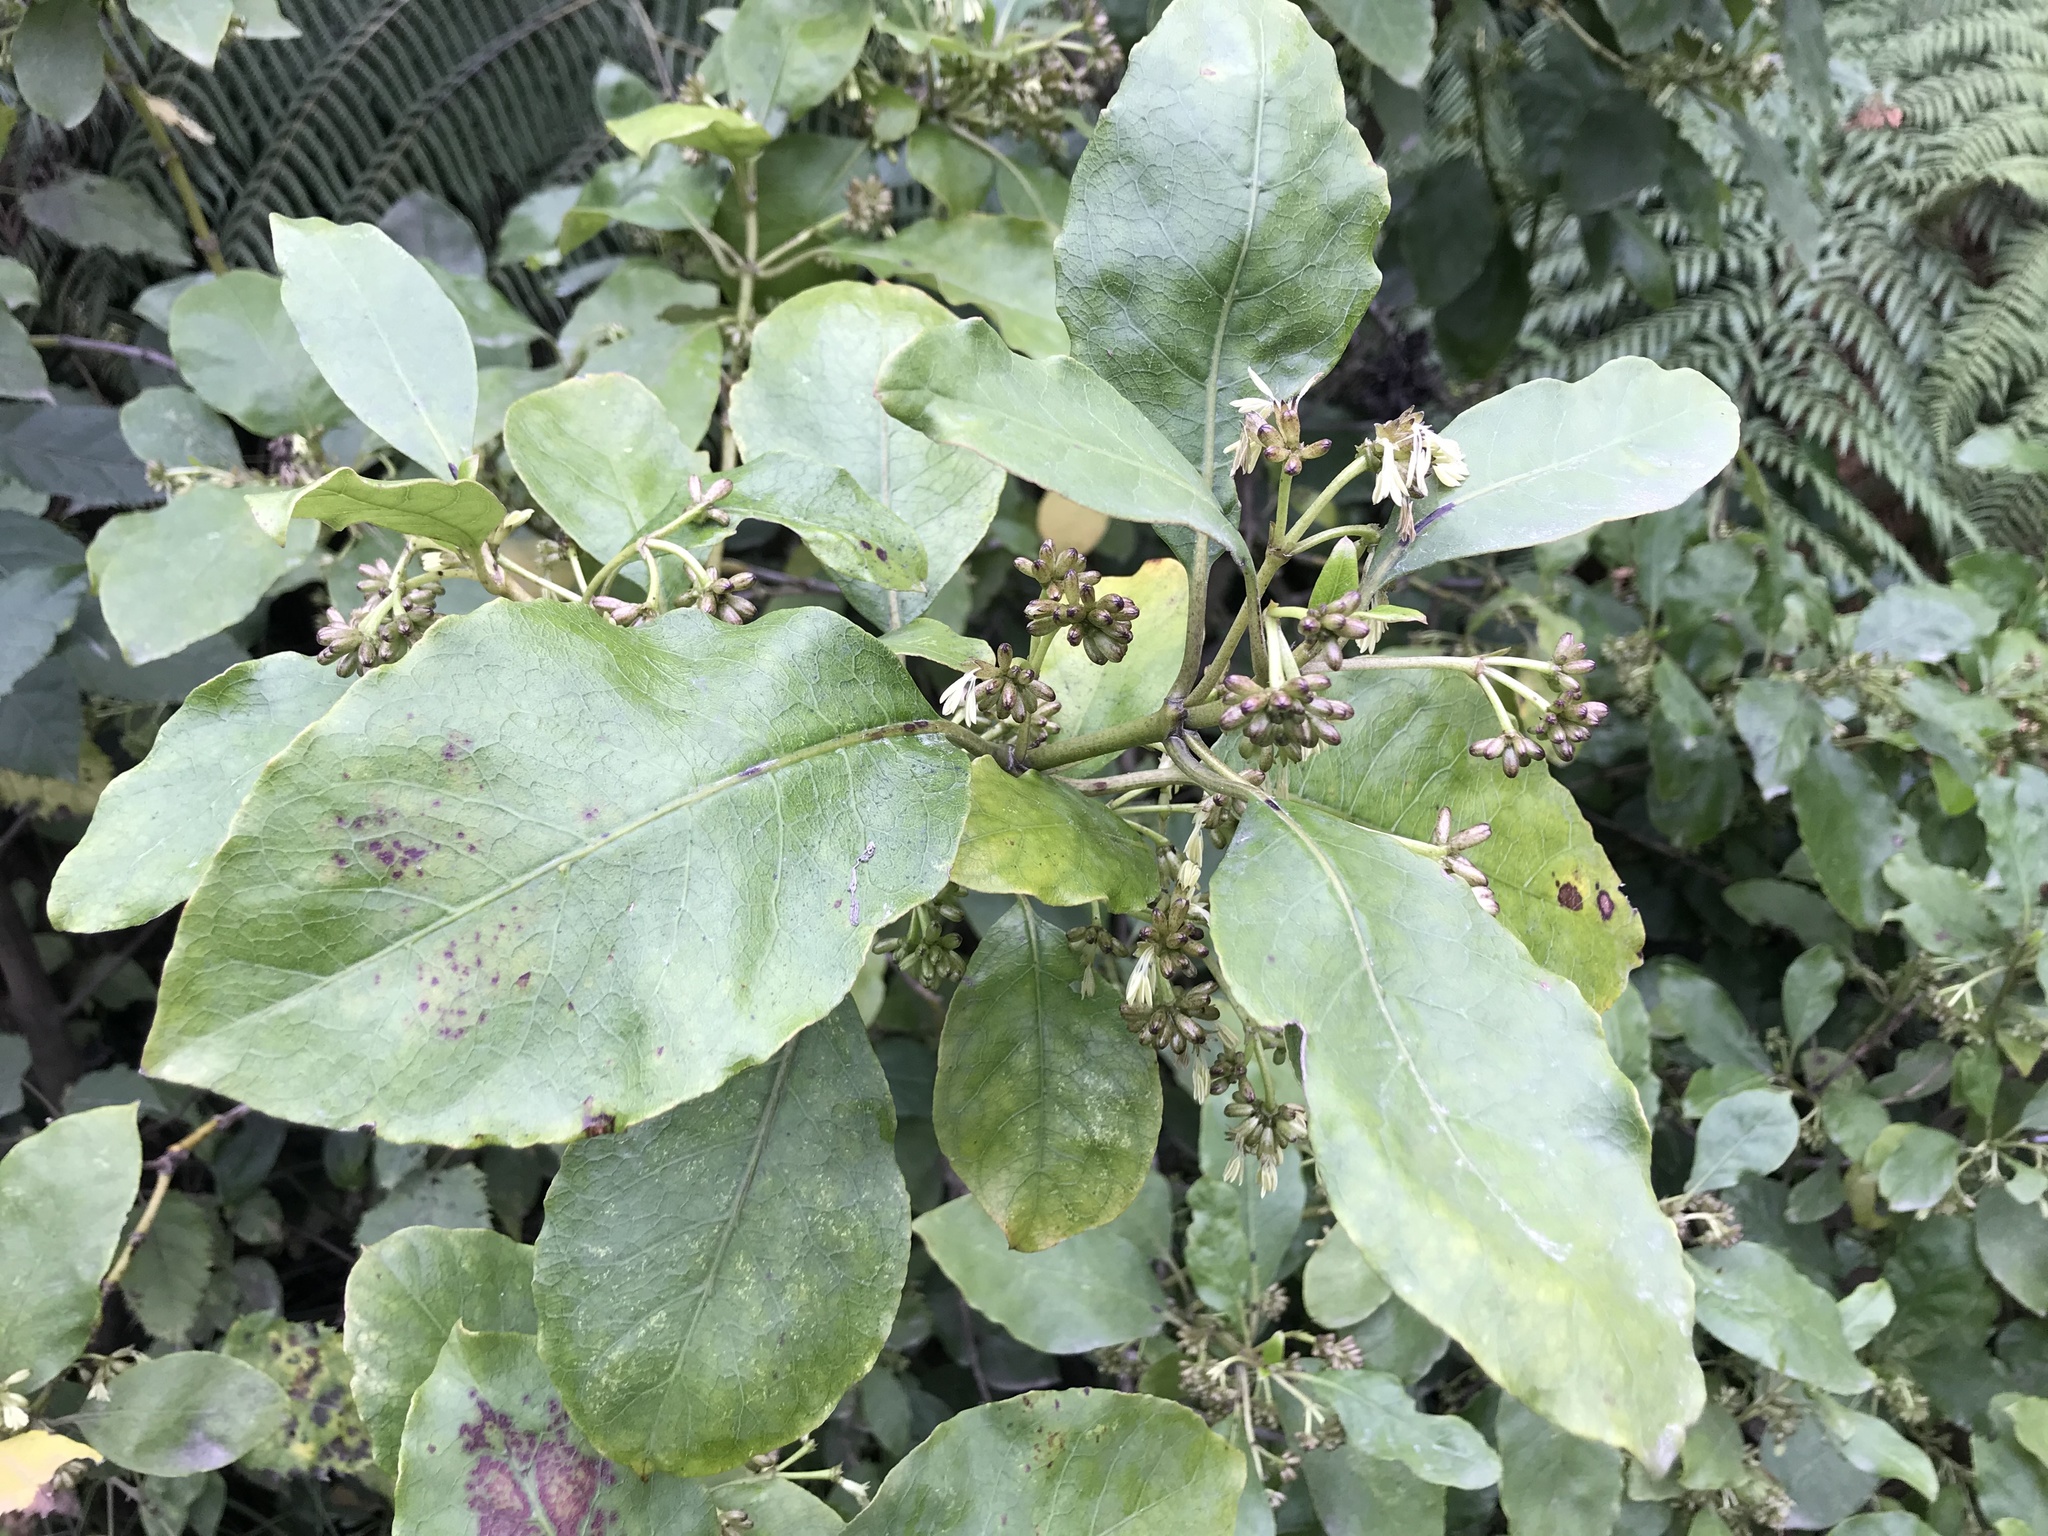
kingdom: Plantae
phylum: Tracheophyta
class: Magnoliopsida
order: Gentianales
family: Rubiaceae
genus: Coprosma
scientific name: Coprosma autumnalis
